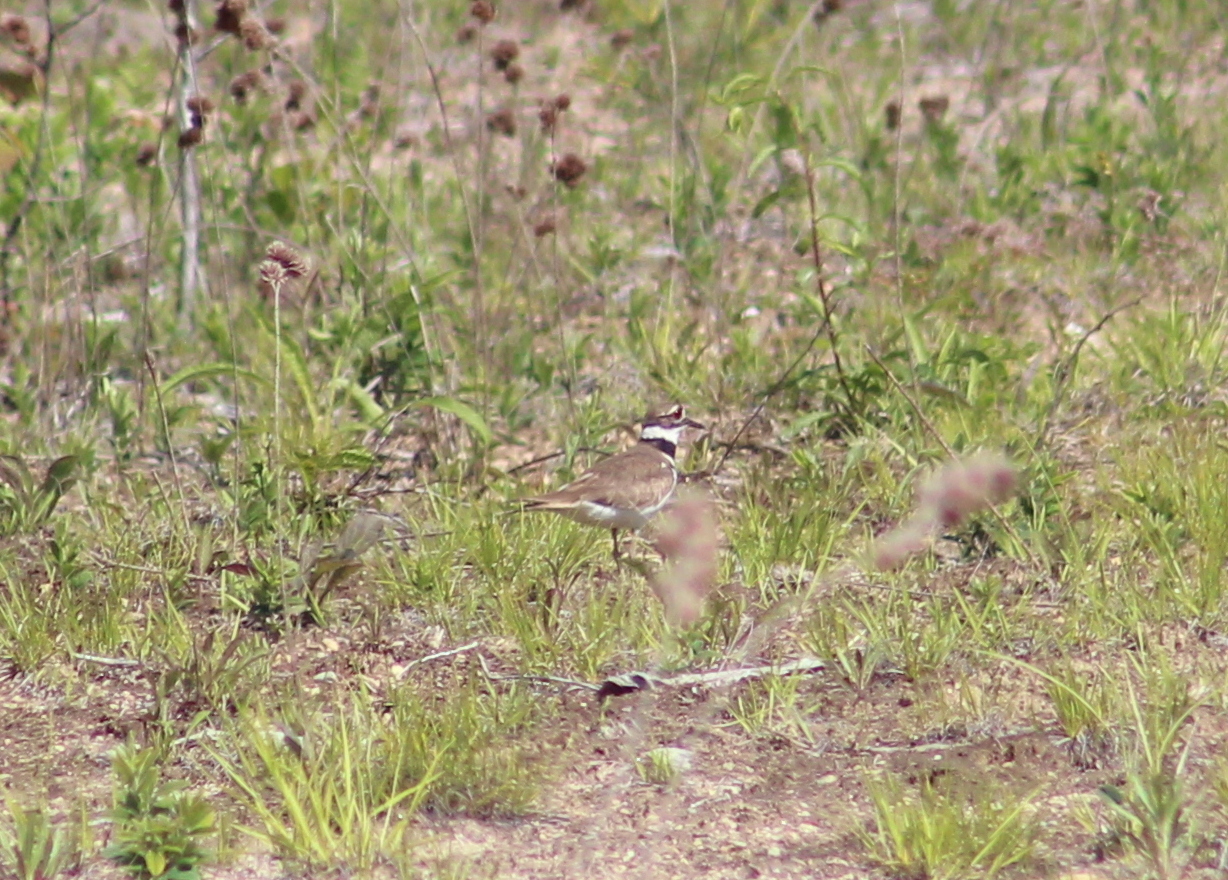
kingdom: Animalia
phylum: Chordata
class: Aves
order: Charadriiformes
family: Charadriidae
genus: Charadrius
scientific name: Charadrius vociferus
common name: Killdeer
